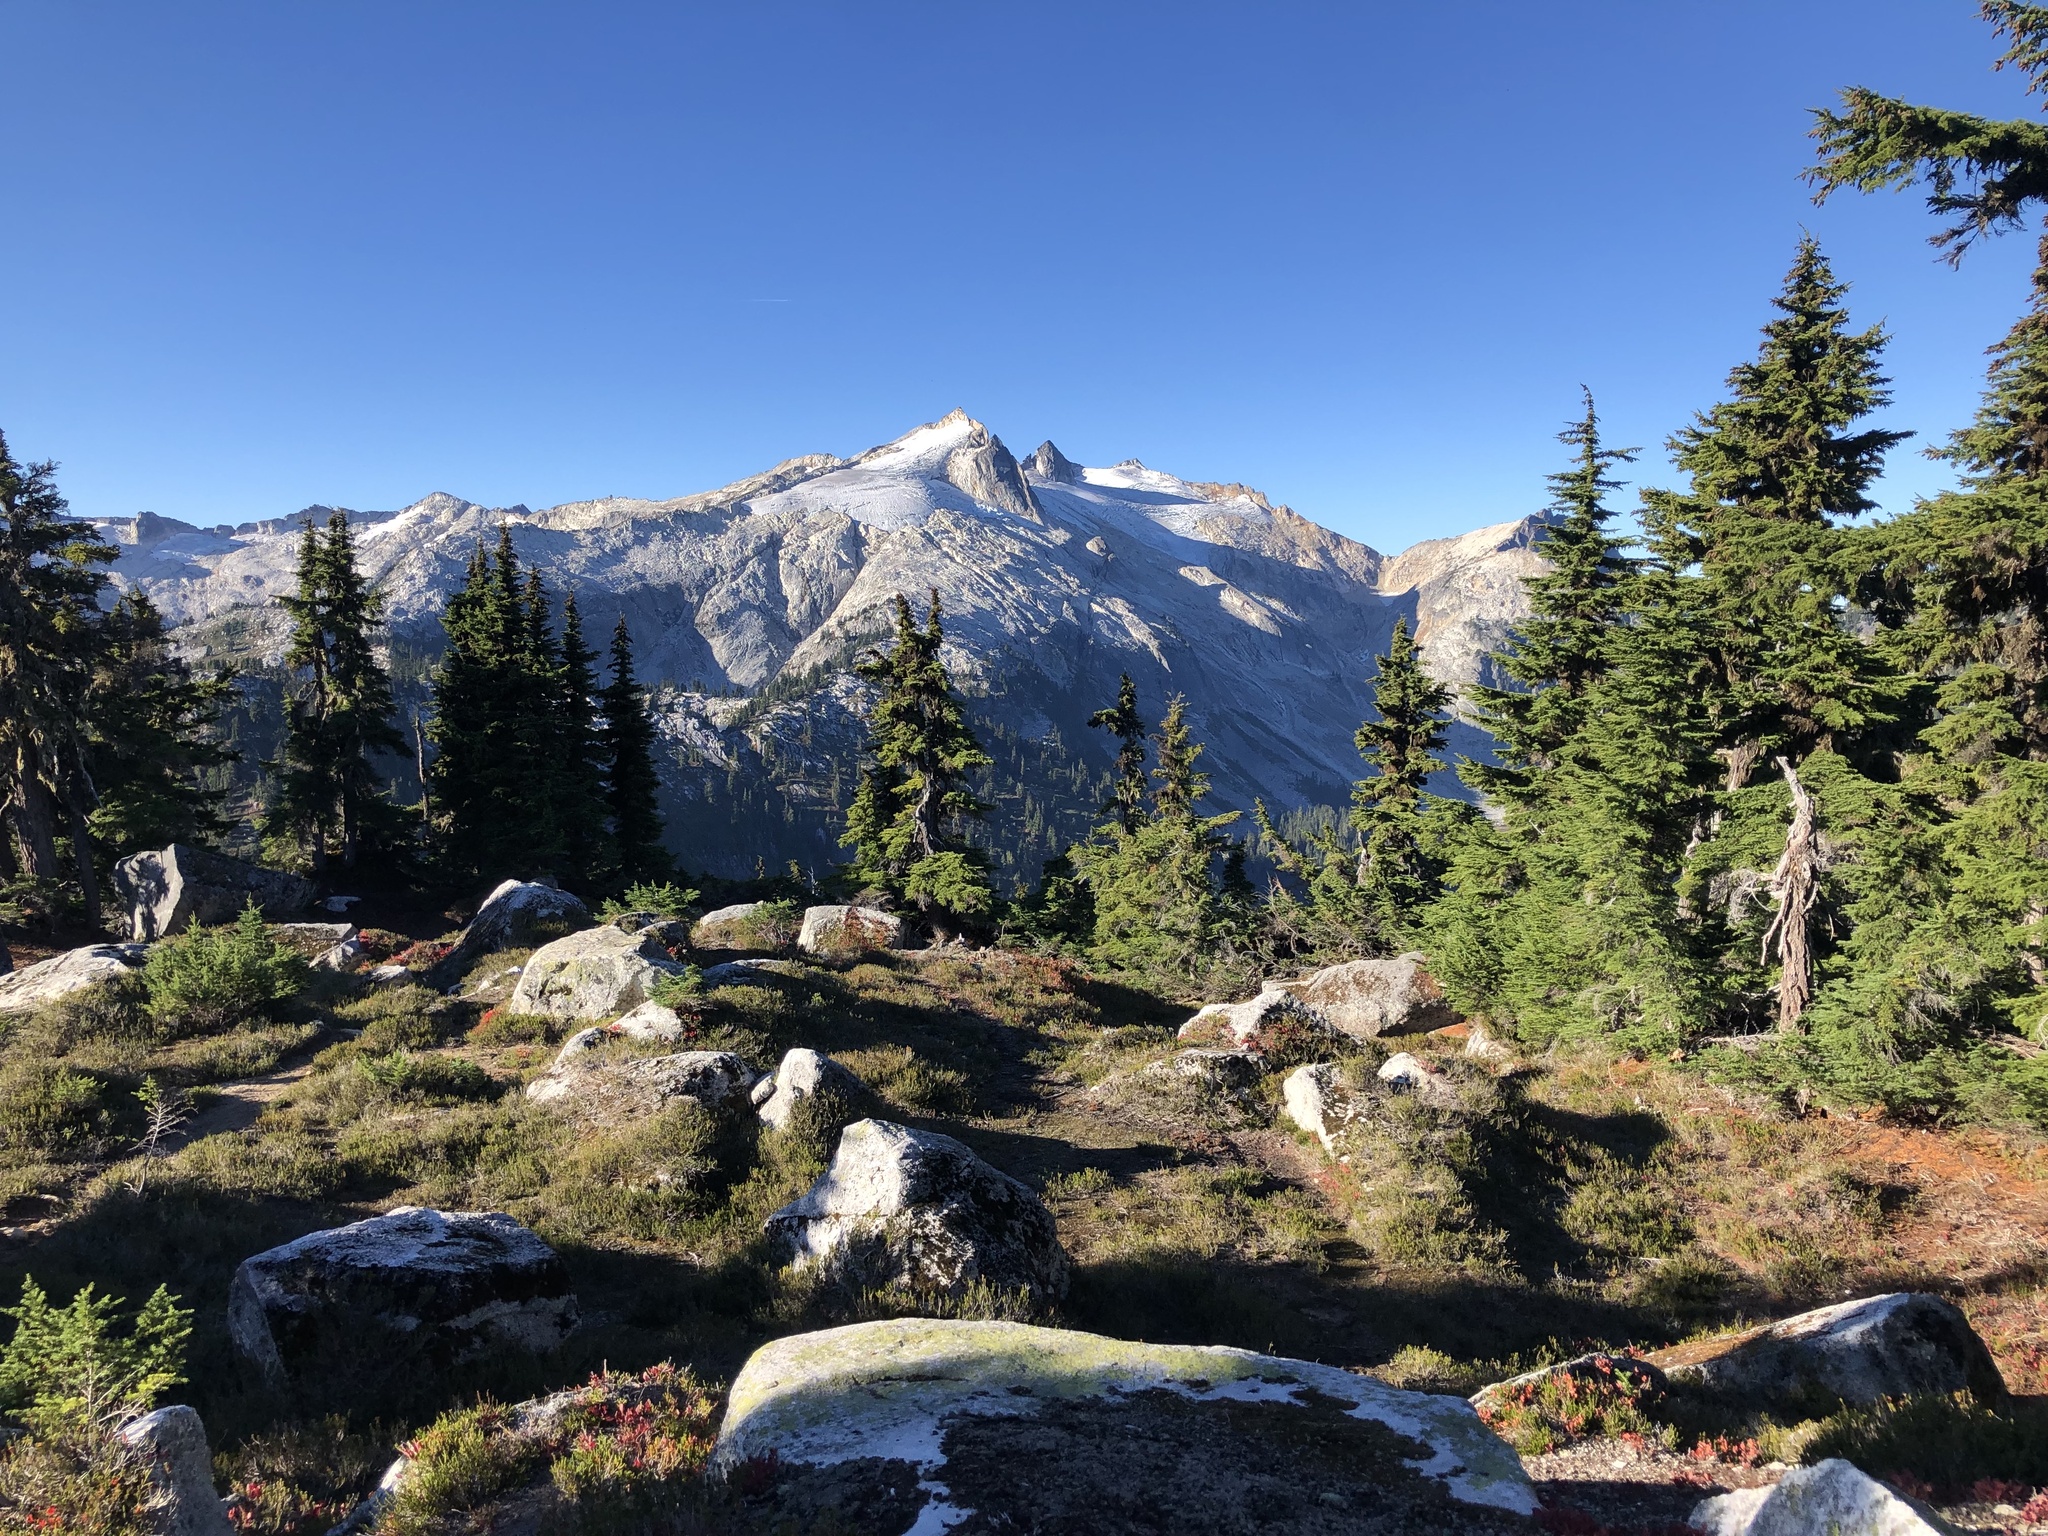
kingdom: Plantae
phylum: Tracheophyta
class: Pinopsida
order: Pinales
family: Pinaceae
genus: Tsuga
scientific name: Tsuga mertensiana
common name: Mountain hemlock
